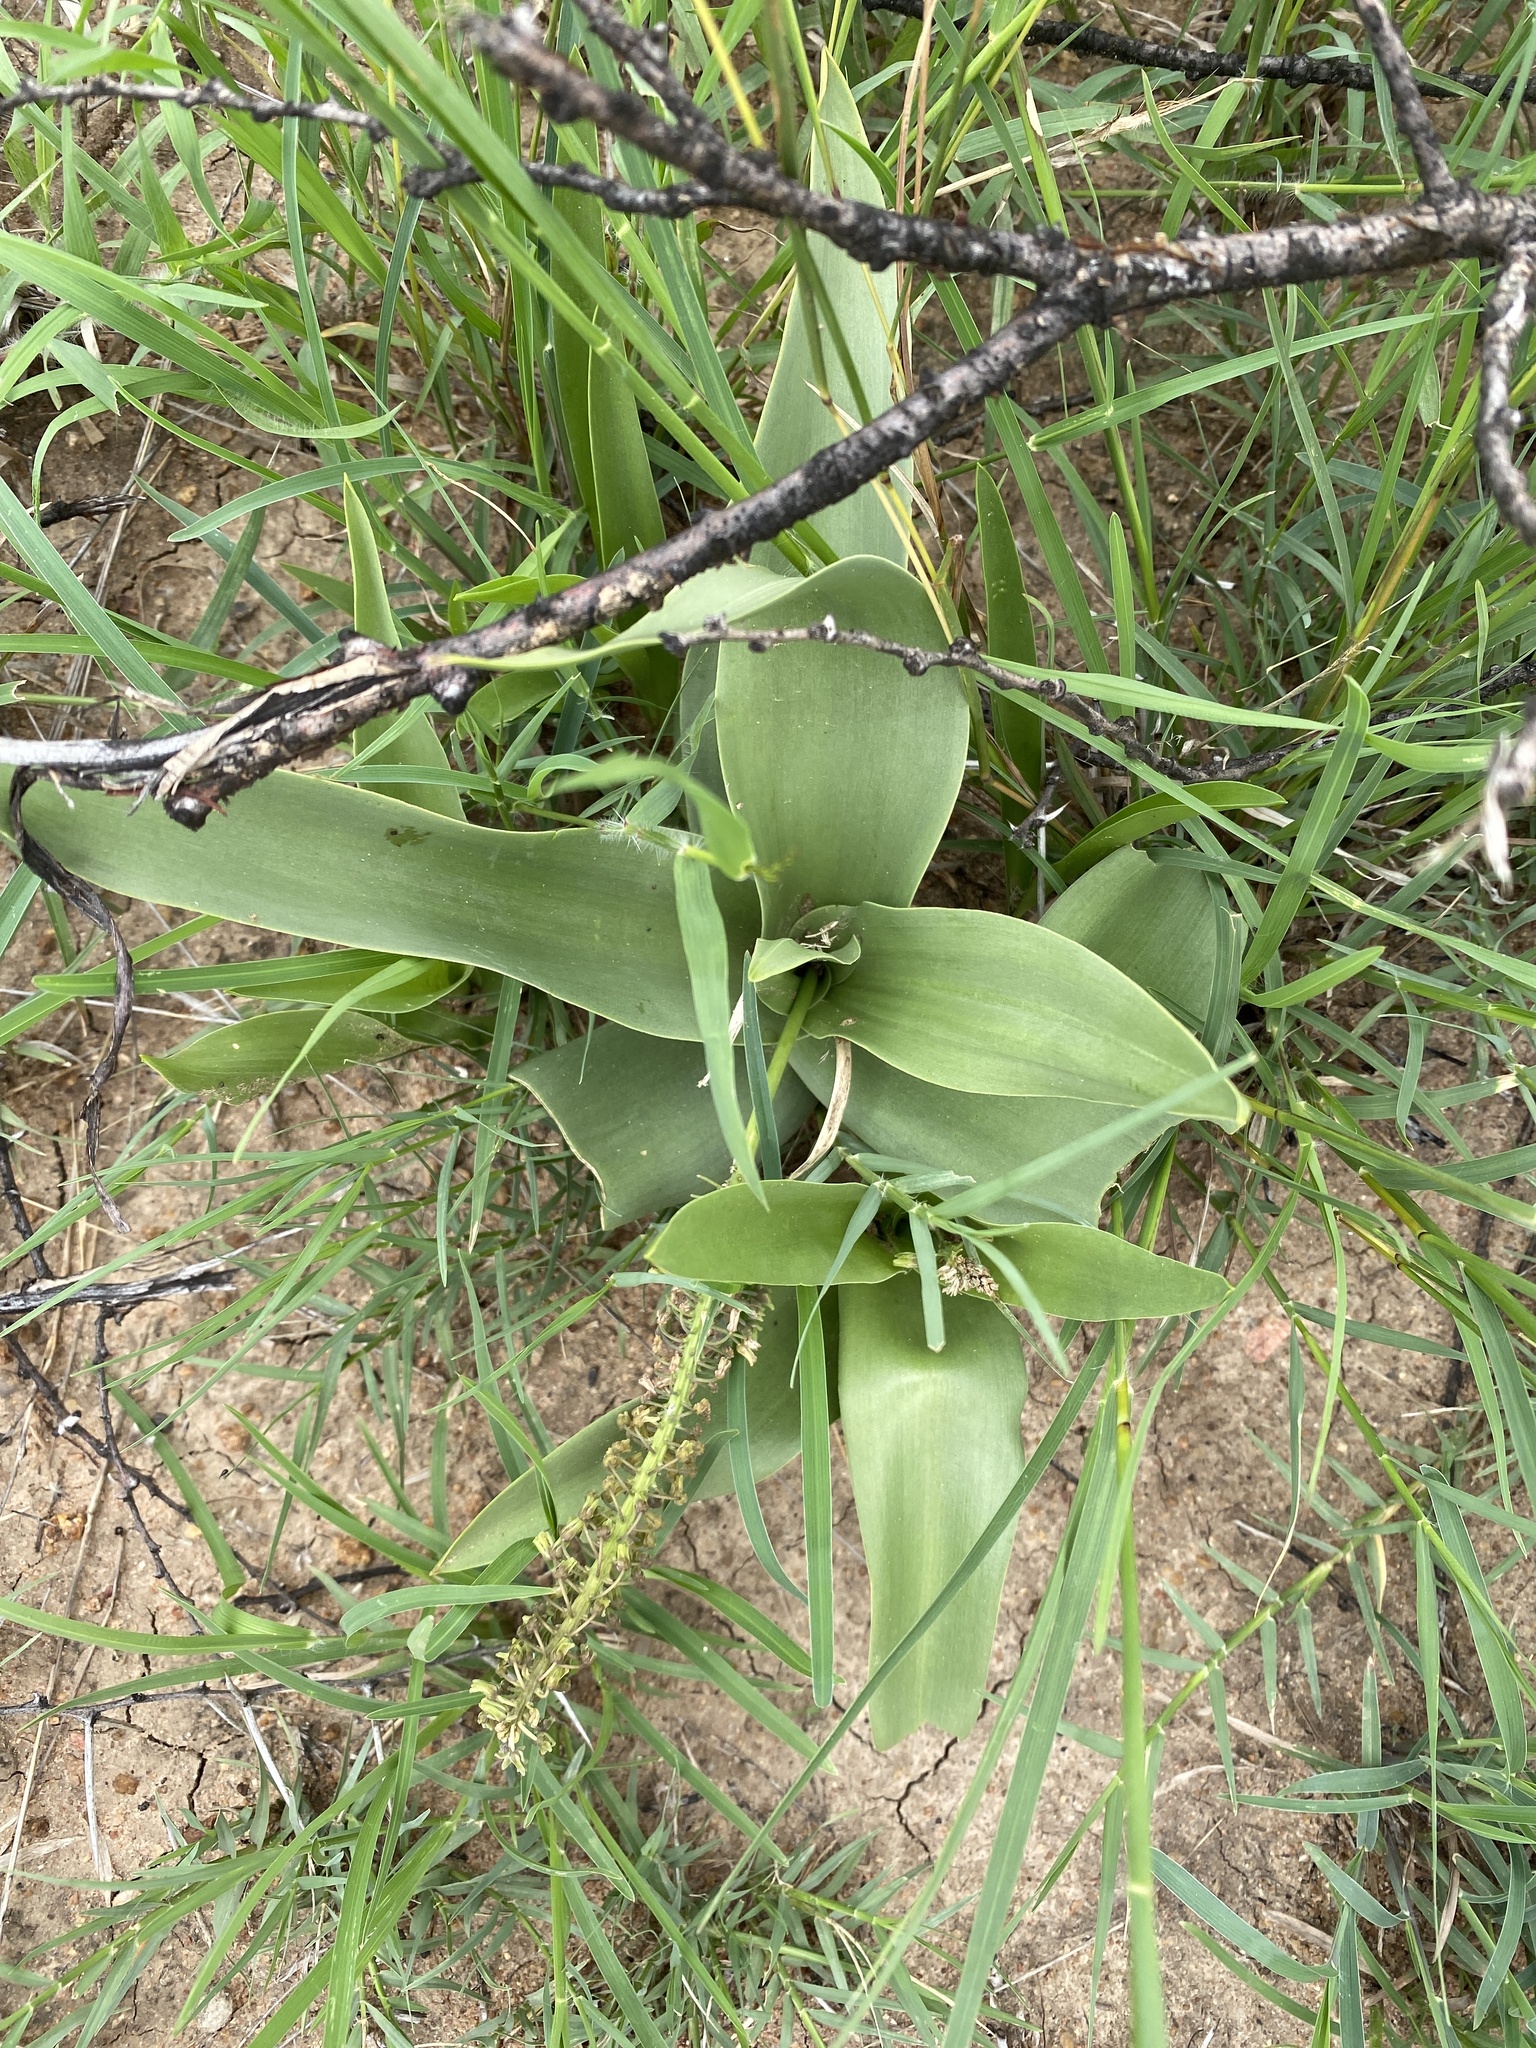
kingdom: Plantae
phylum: Tracheophyta
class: Liliopsida
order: Asparagales
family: Asparagaceae
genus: Ledebouria
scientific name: Ledebouria asperifolia
